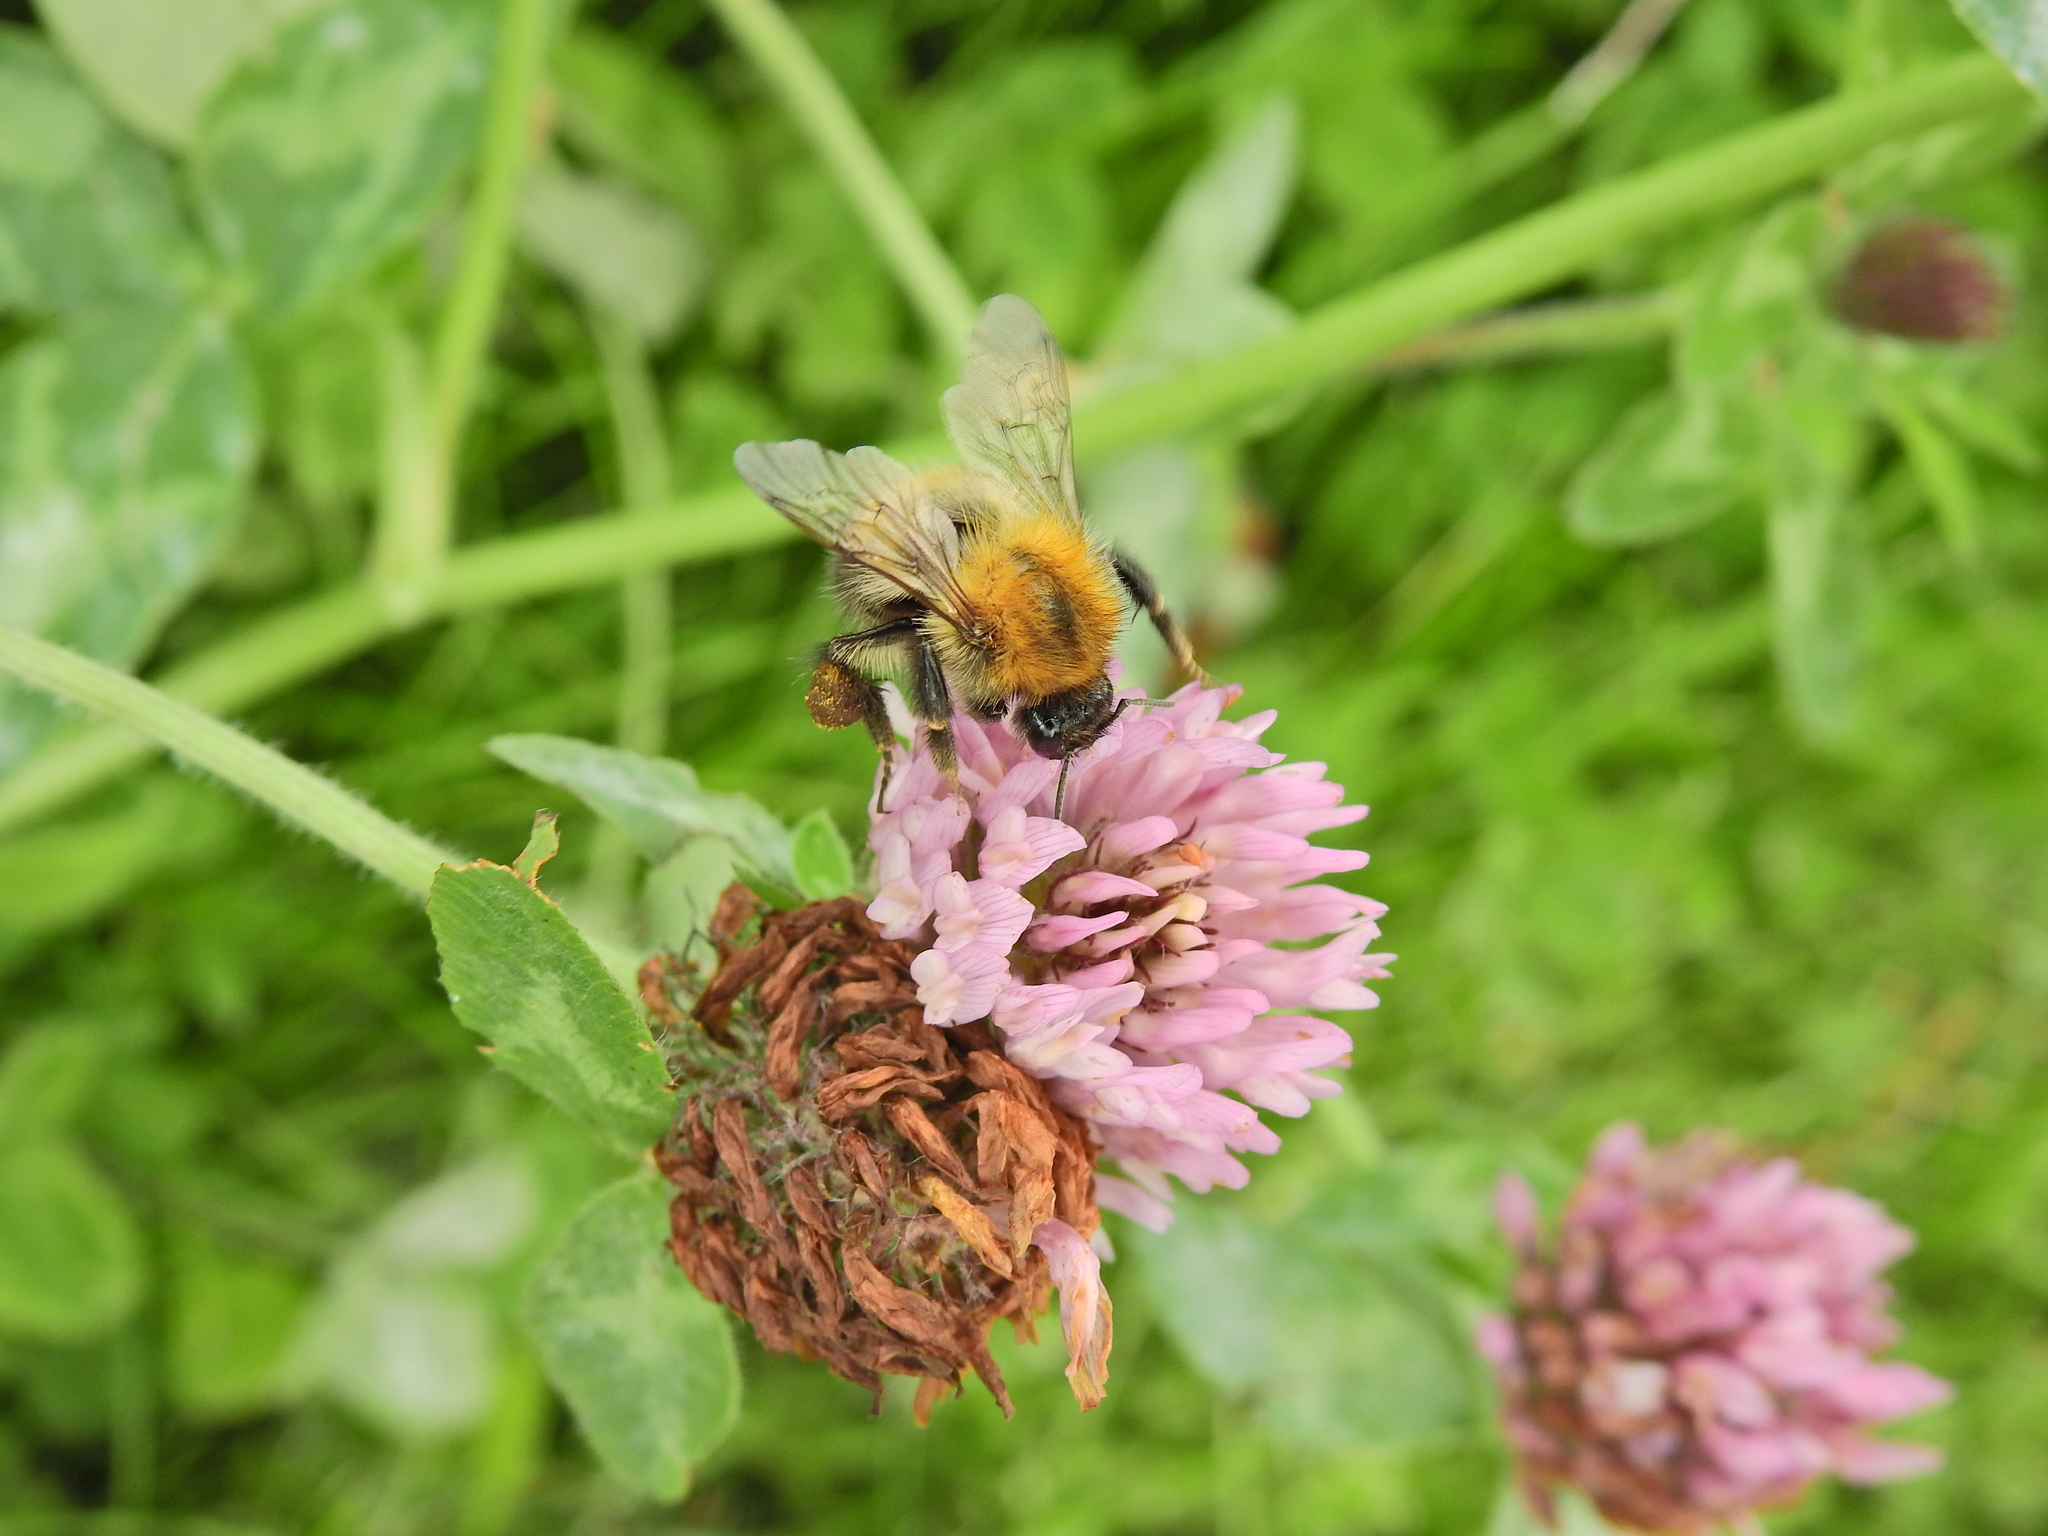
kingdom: Animalia
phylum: Arthropoda
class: Insecta
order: Hymenoptera
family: Apidae
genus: Bombus
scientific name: Bombus pascuorum
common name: Common carder bee
